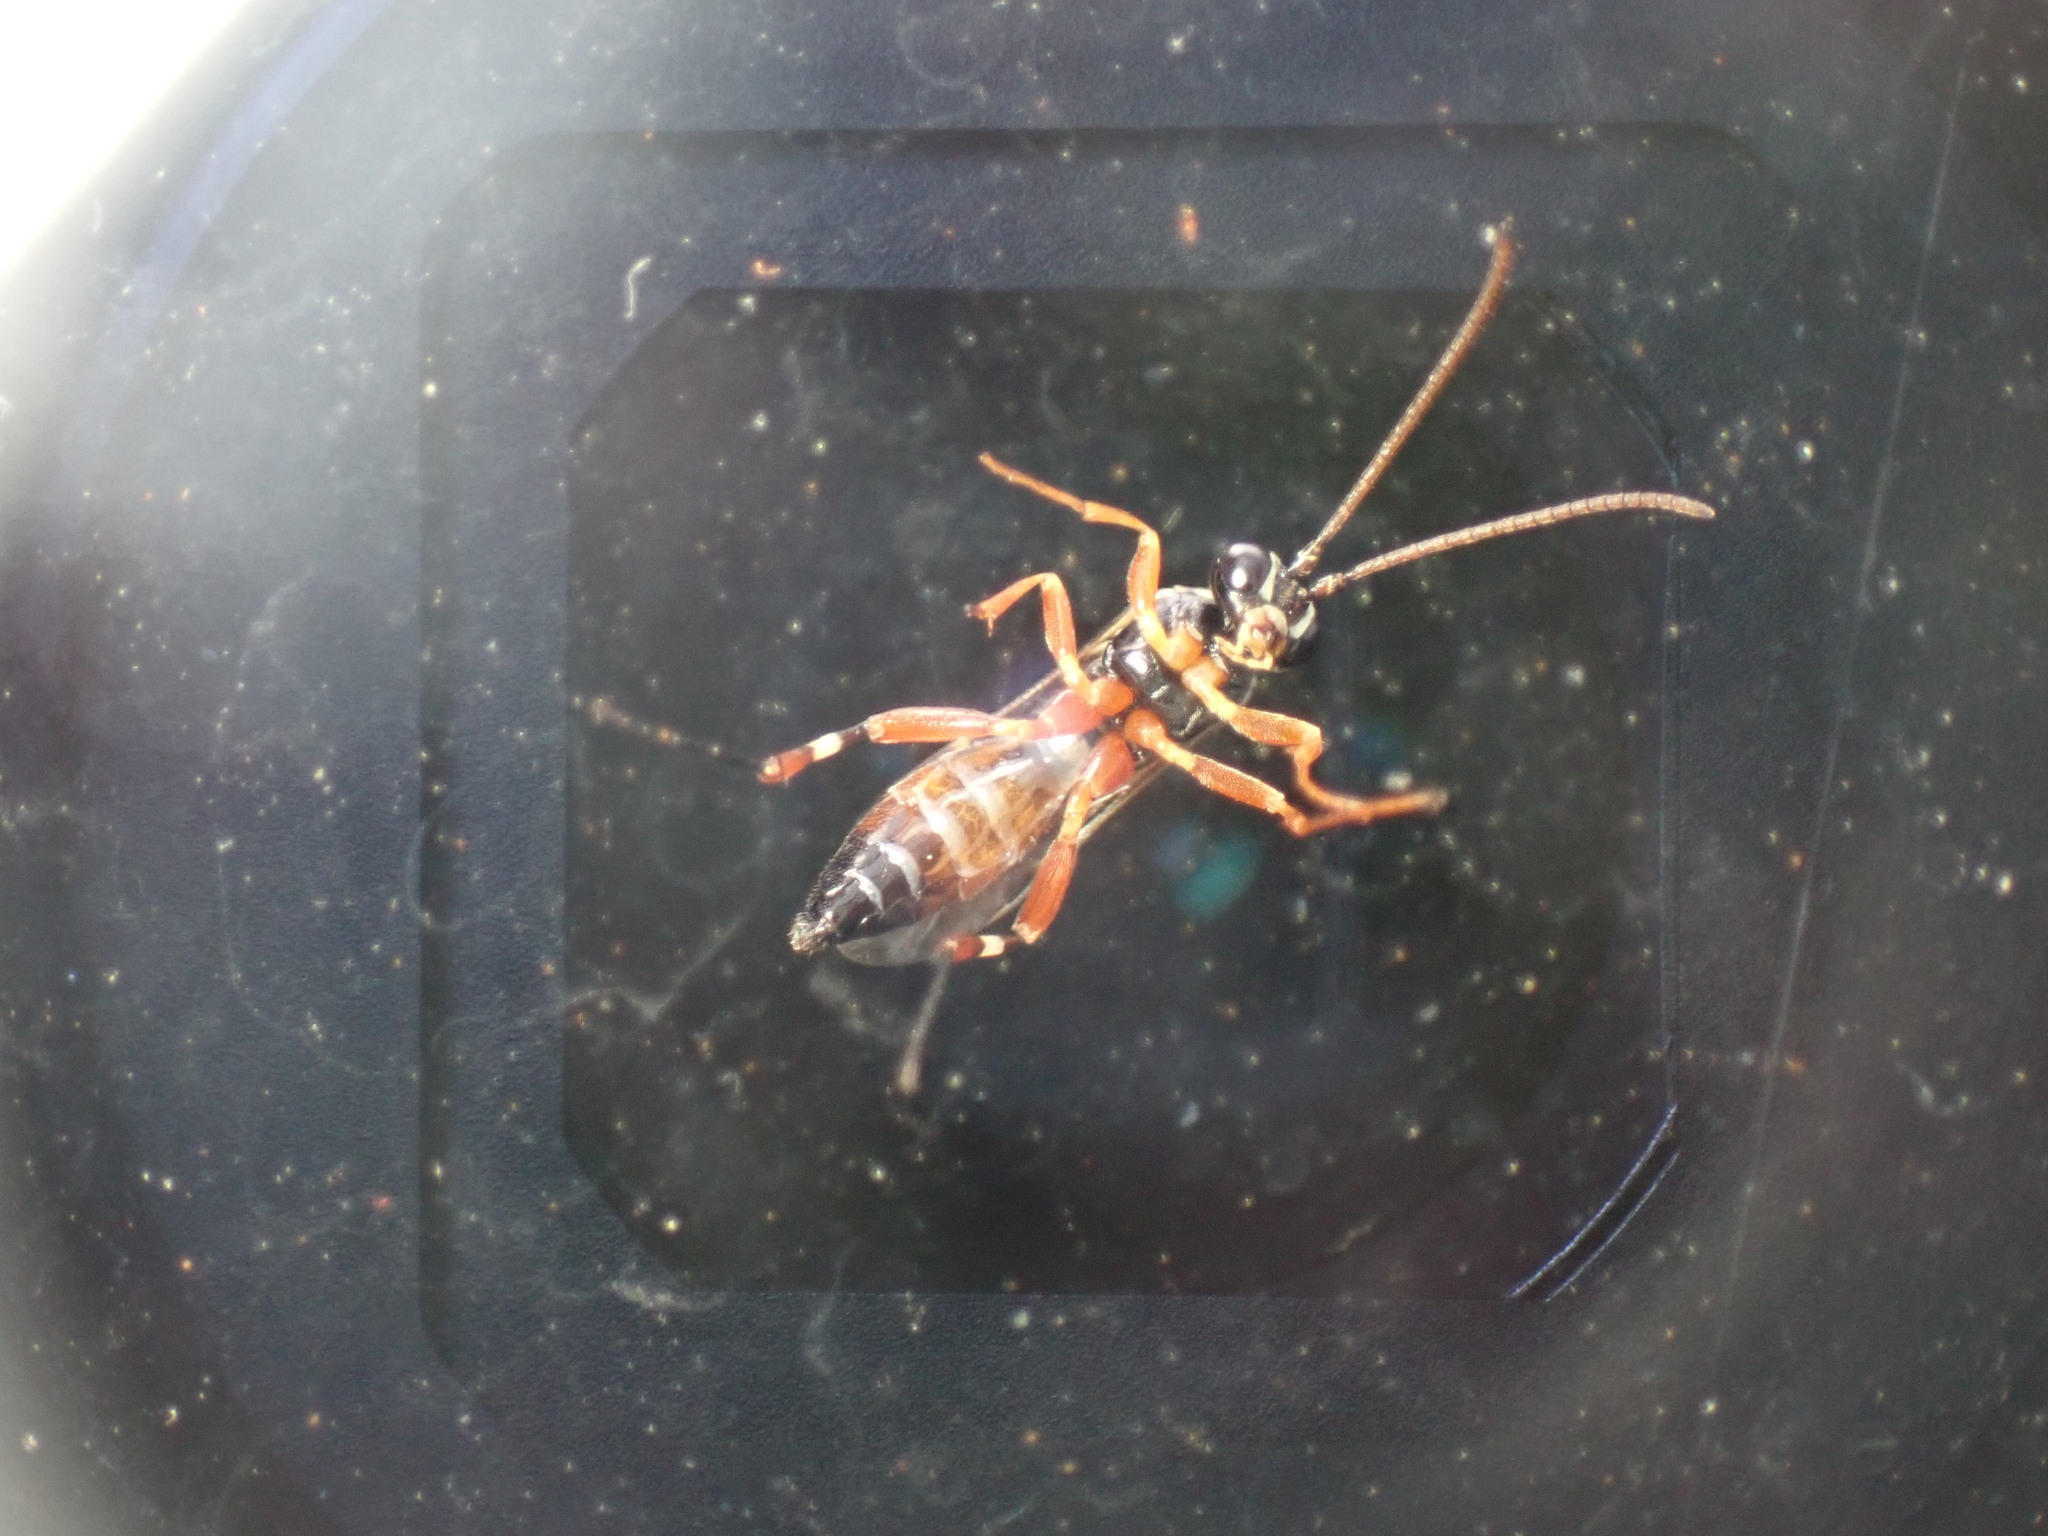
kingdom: Animalia
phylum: Arthropoda
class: Insecta
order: Hymenoptera
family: Ichneumonidae
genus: Diplazon
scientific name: Diplazon laetatorius
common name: Parasitoid wasp
